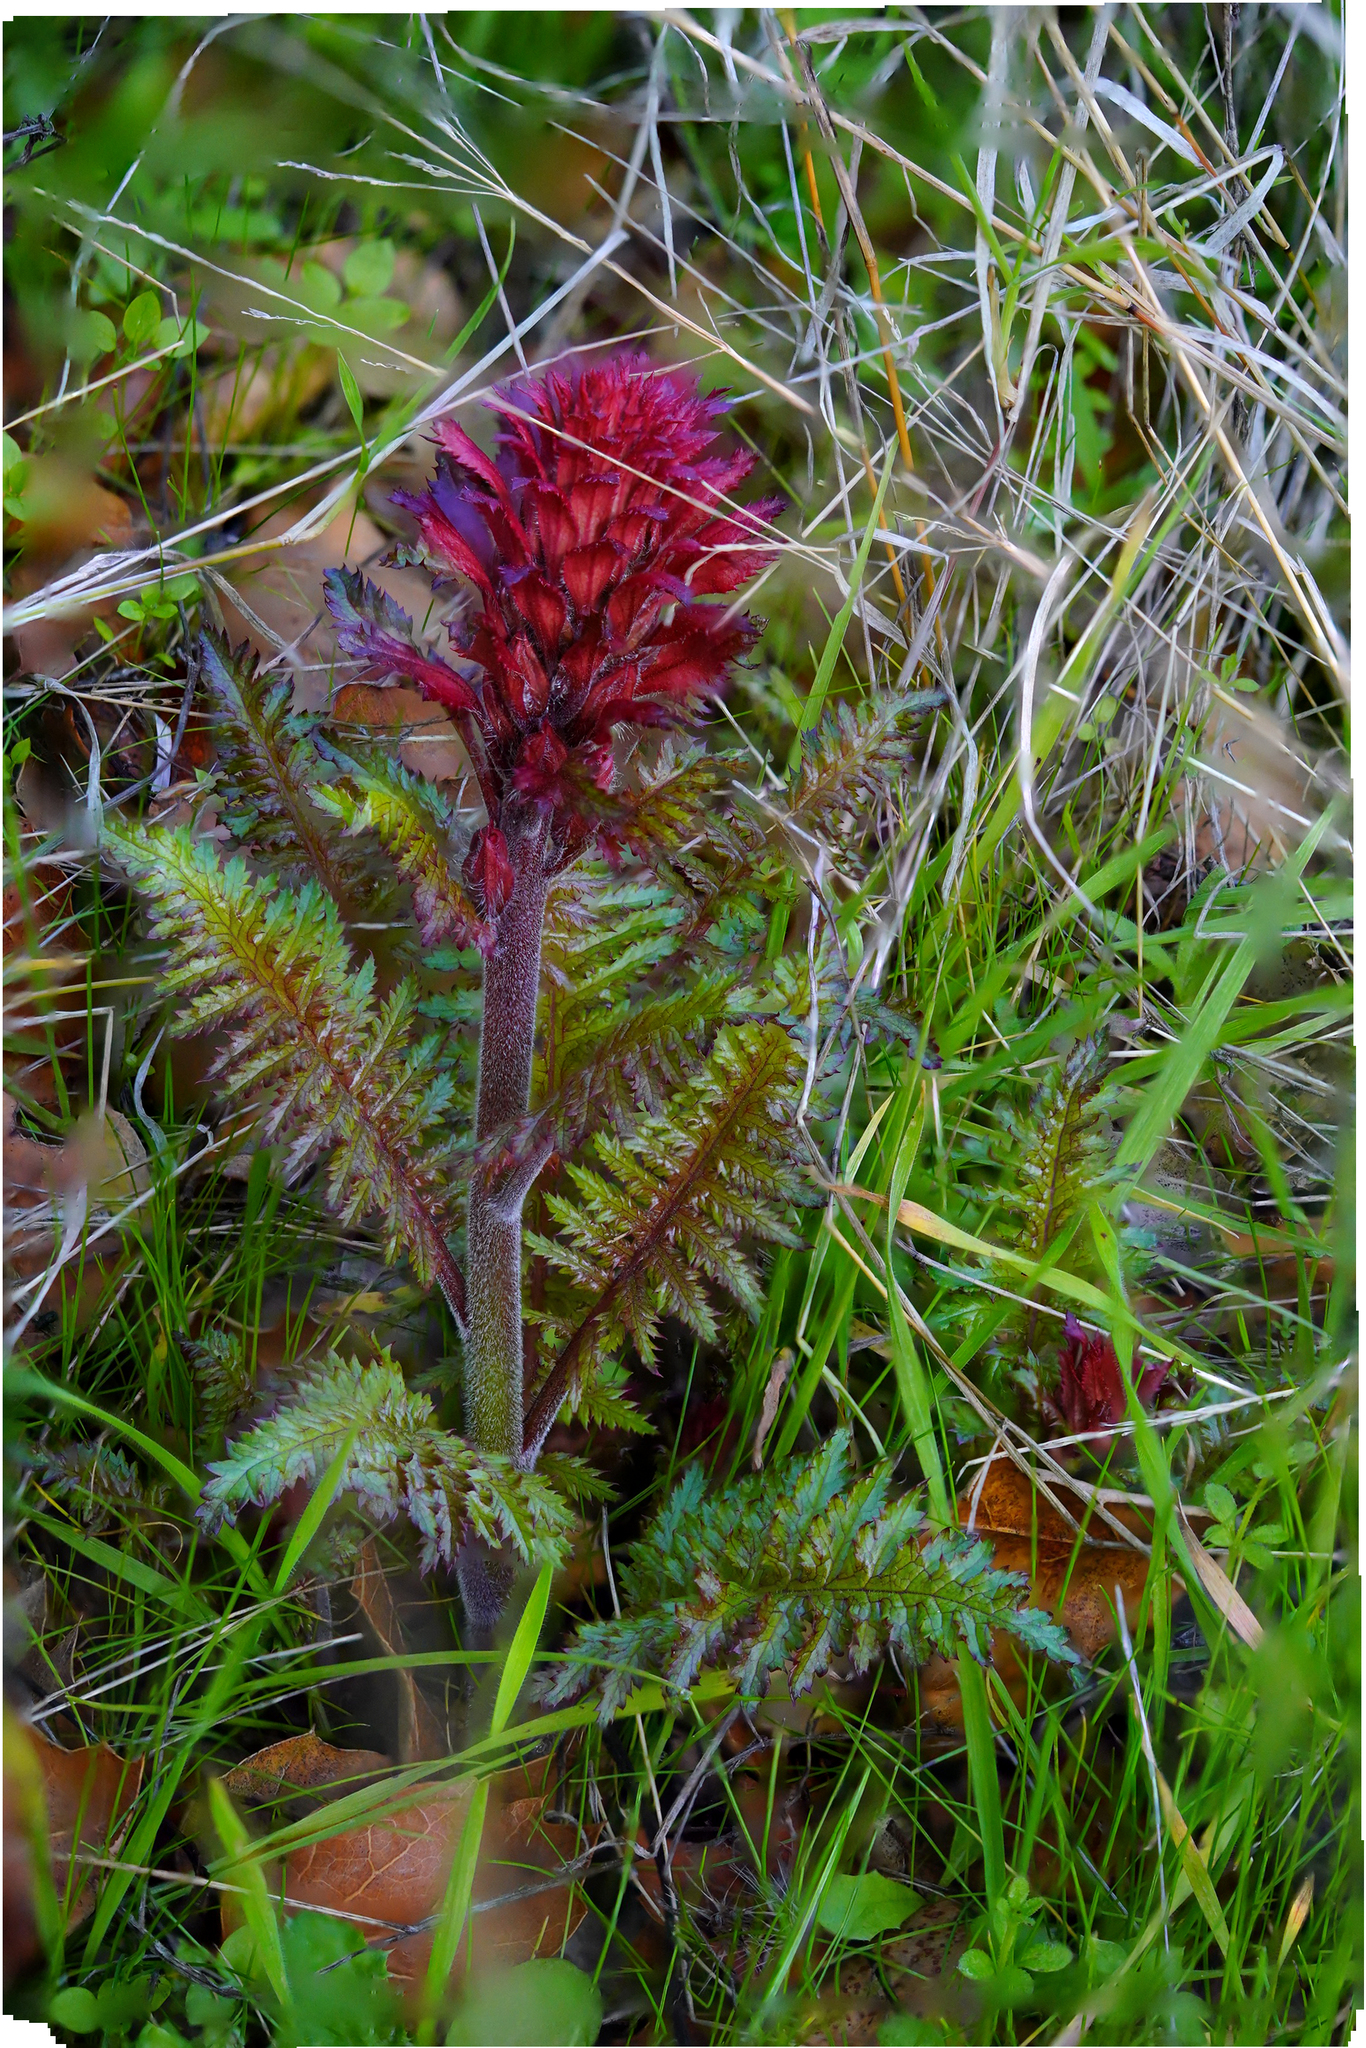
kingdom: Plantae
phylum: Tracheophyta
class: Magnoliopsida
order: Lamiales
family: Orobanchaceae
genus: Pedicularis
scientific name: Pedicularis densiflora
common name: Indian warrior
